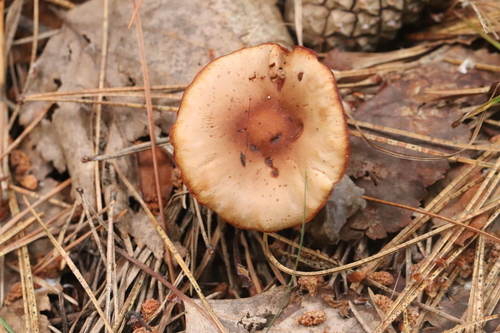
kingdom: Fungi
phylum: Basidiomycota
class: Agaricomycetes
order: Agaricales
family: Omphalotaceae
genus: Gymnopus
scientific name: Gymnopus ocior
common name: Spring toughshank
